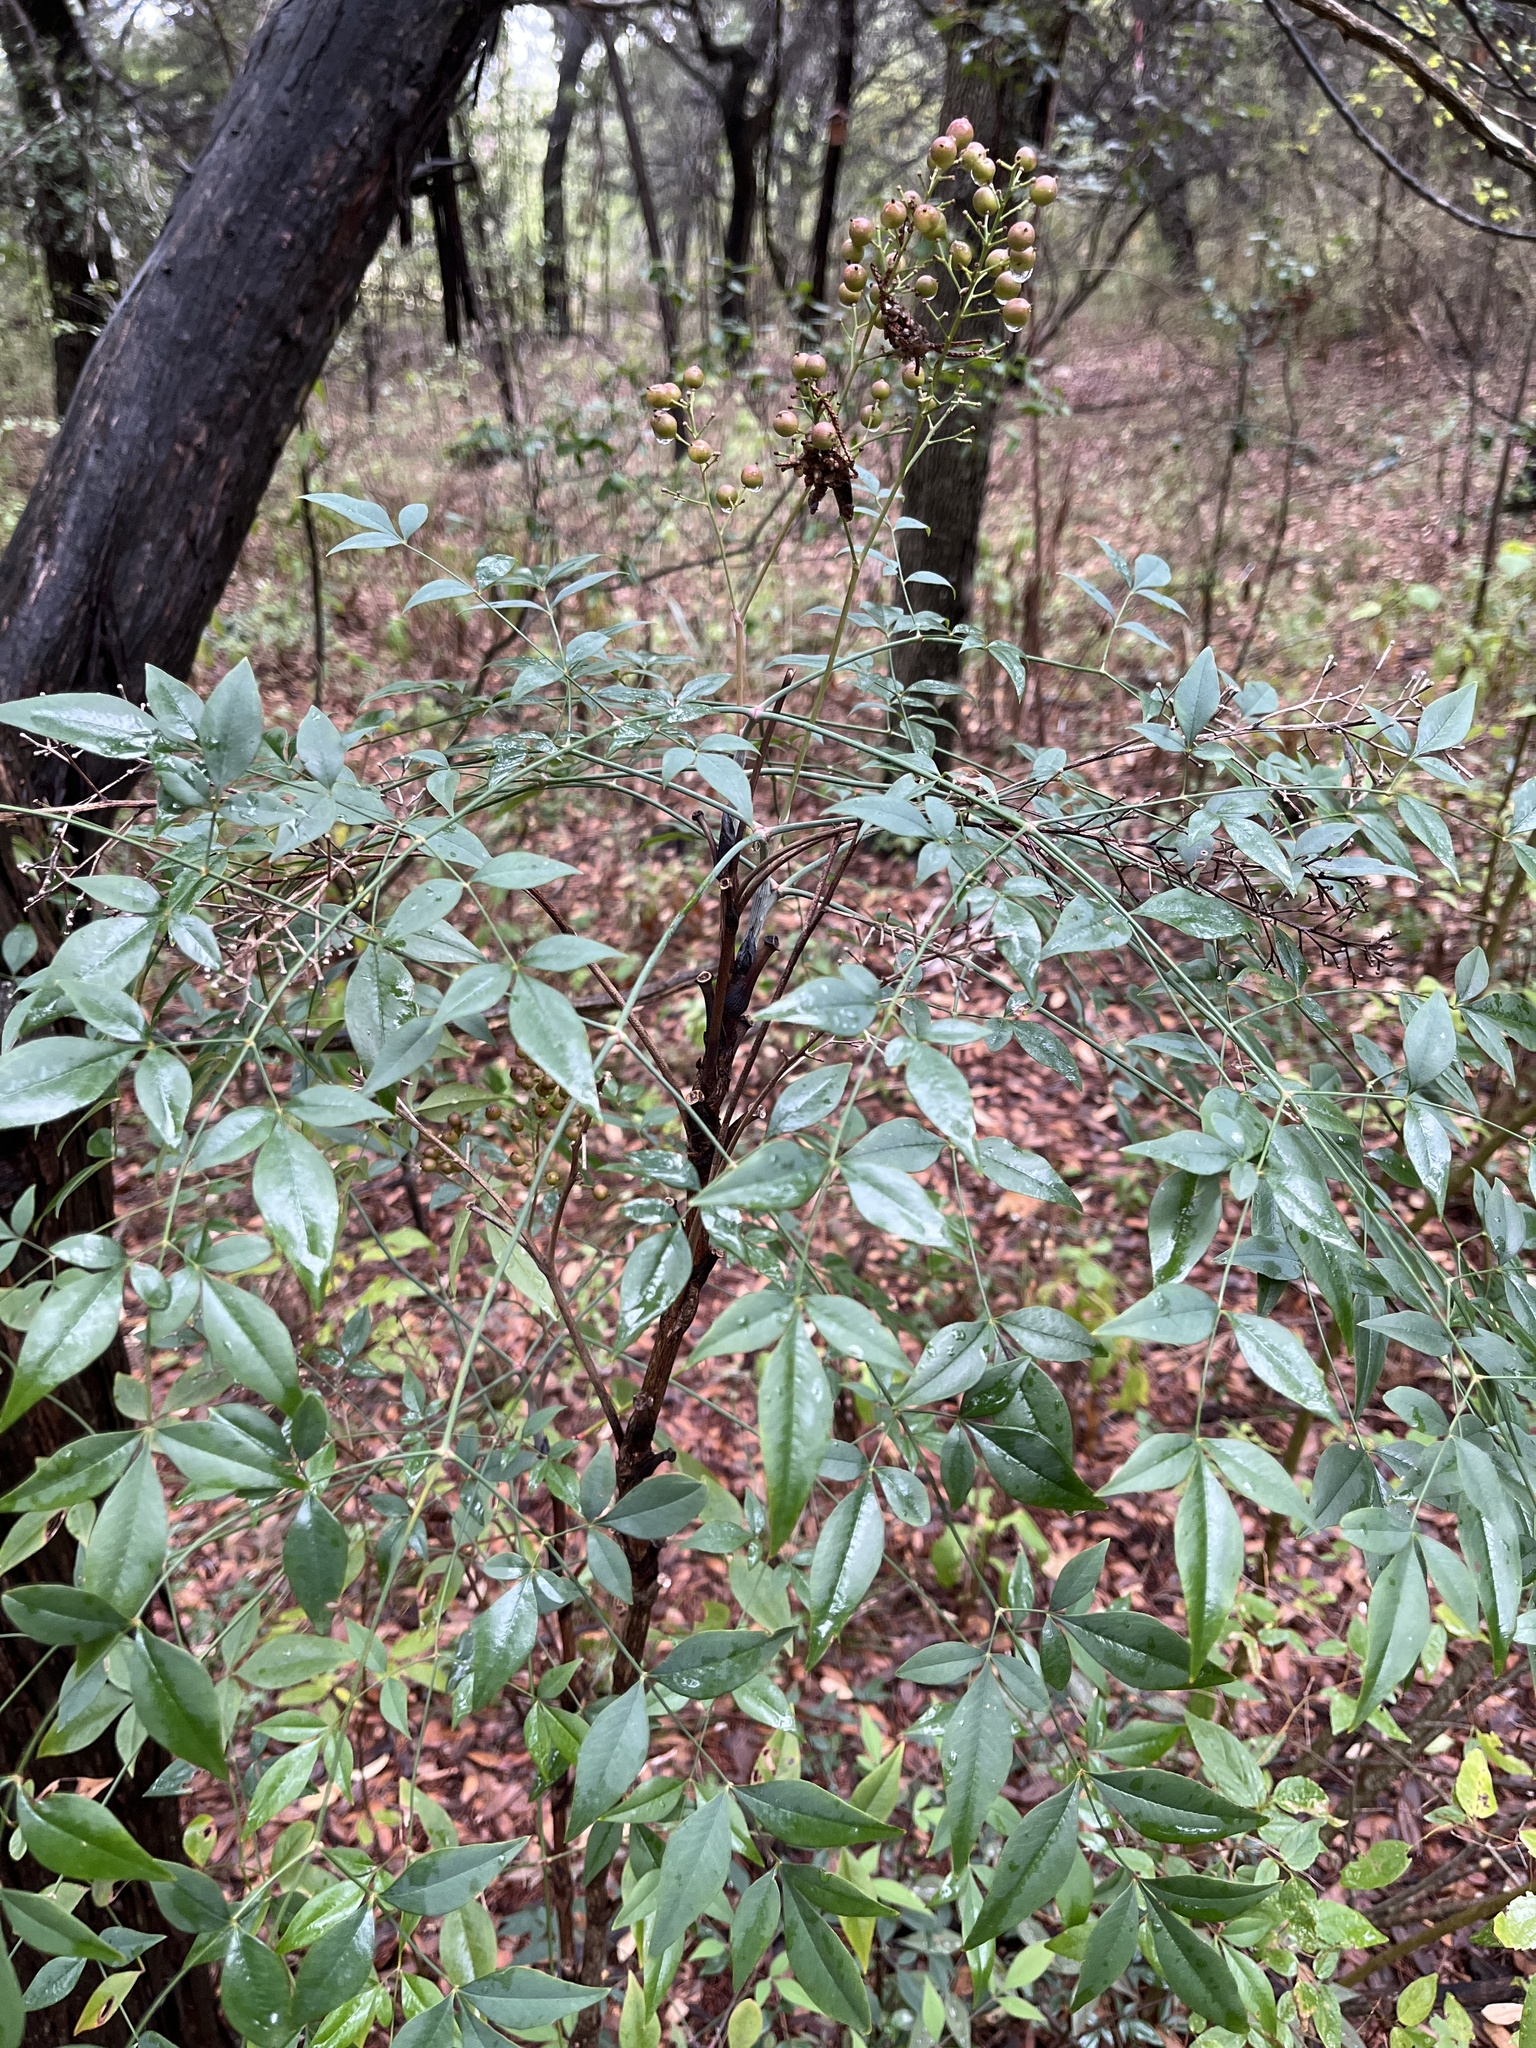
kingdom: Plantae
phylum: Tracheophyta
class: Magnoliopsida
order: Ranunculales
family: Berberidaceae
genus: Nandina
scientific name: Nandina domestica
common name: Sacred bamboo
